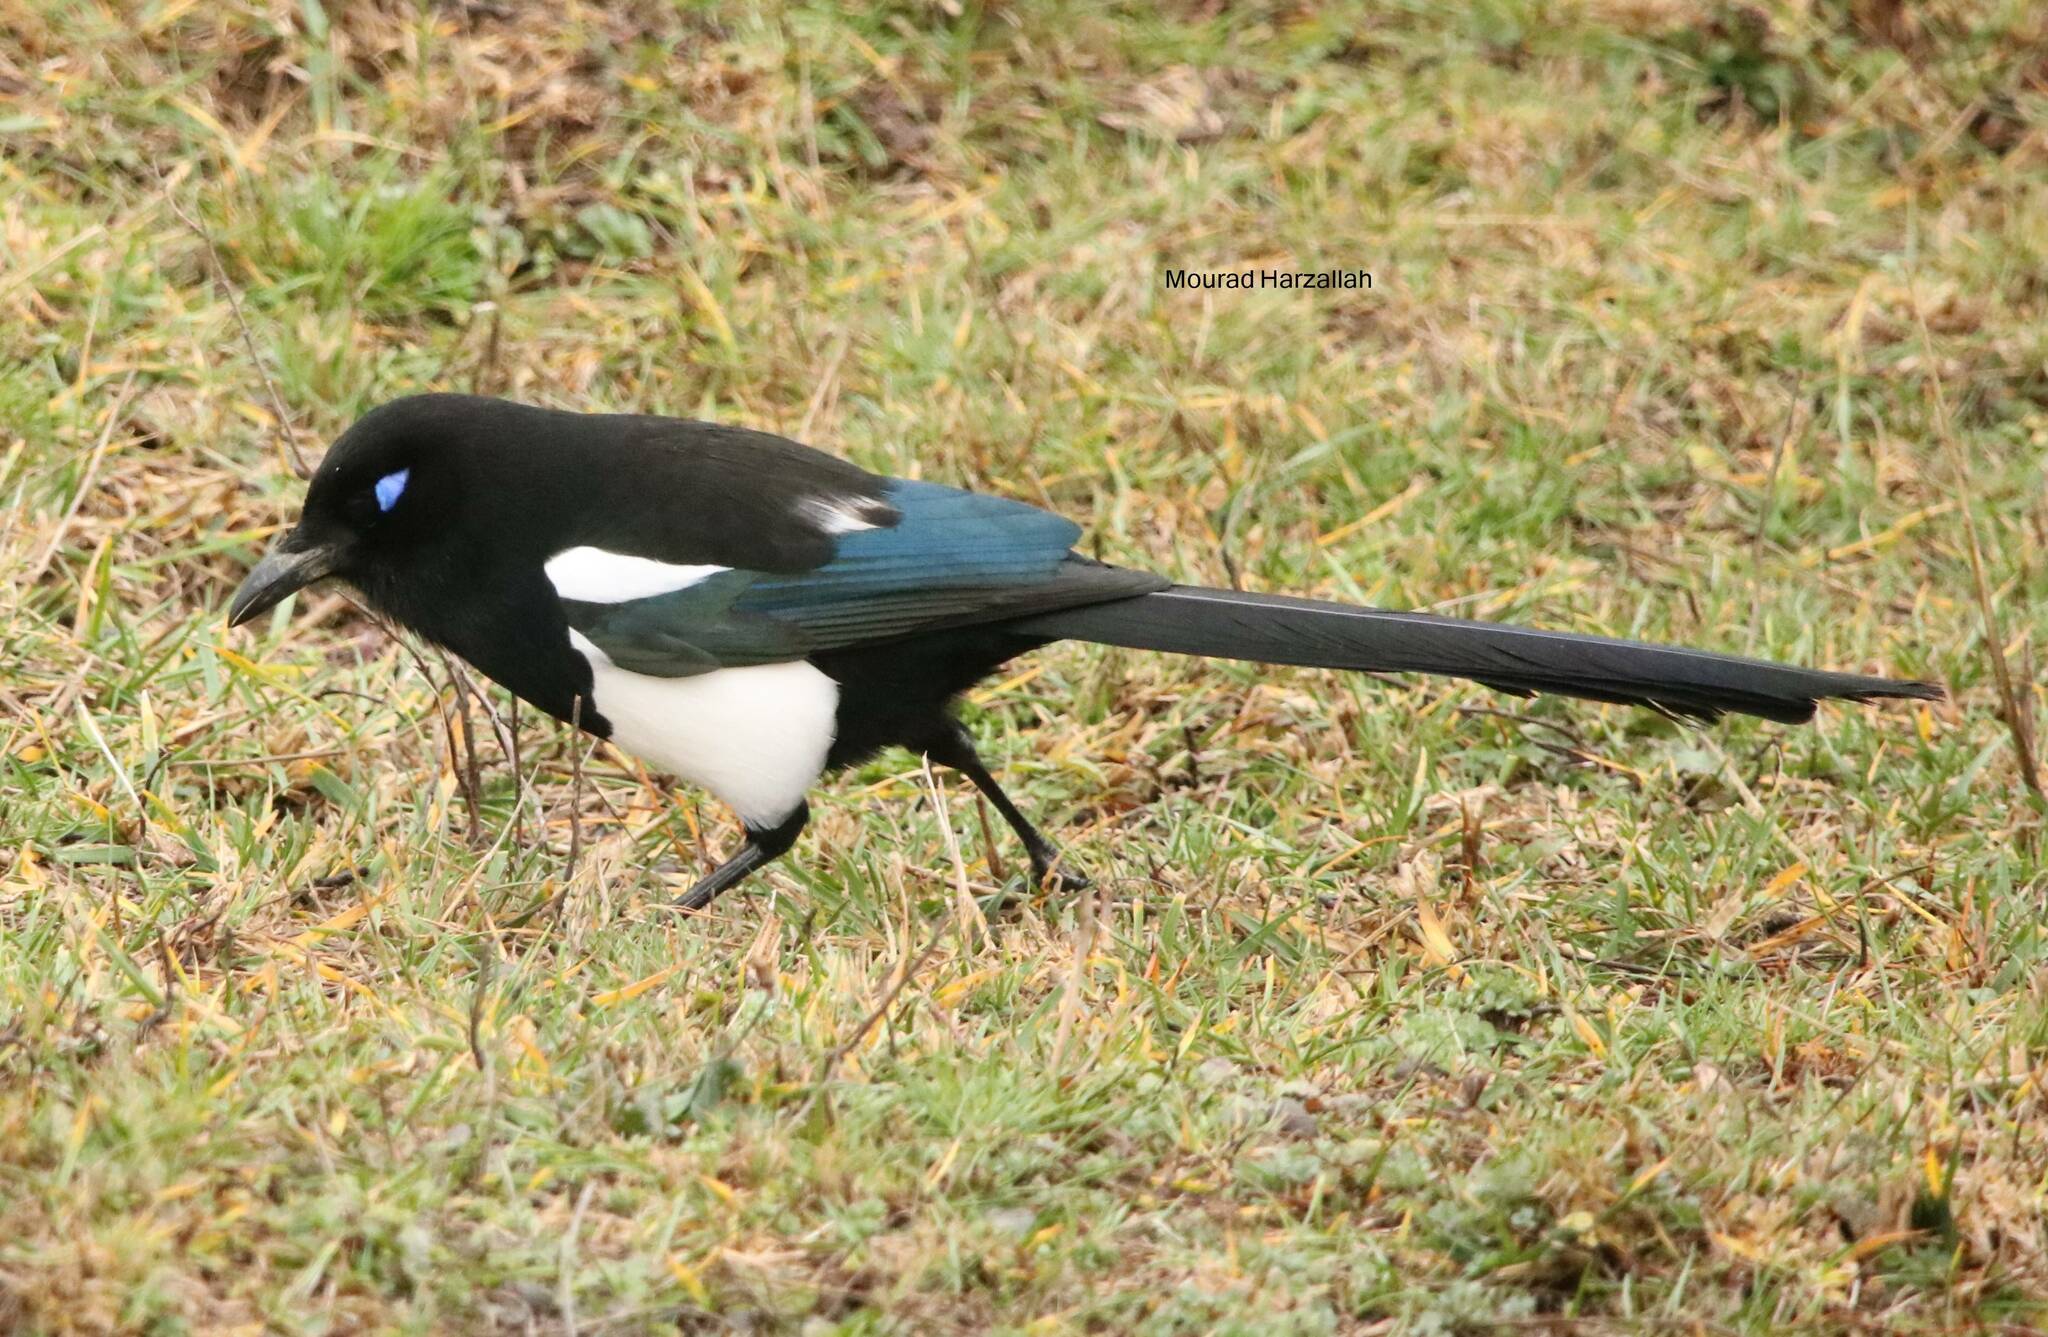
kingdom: Animalia
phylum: Chordata
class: Aves
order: Passeriformes
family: Corvidae
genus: Pica
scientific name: Pica mauritanica
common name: Maghreb magpie
